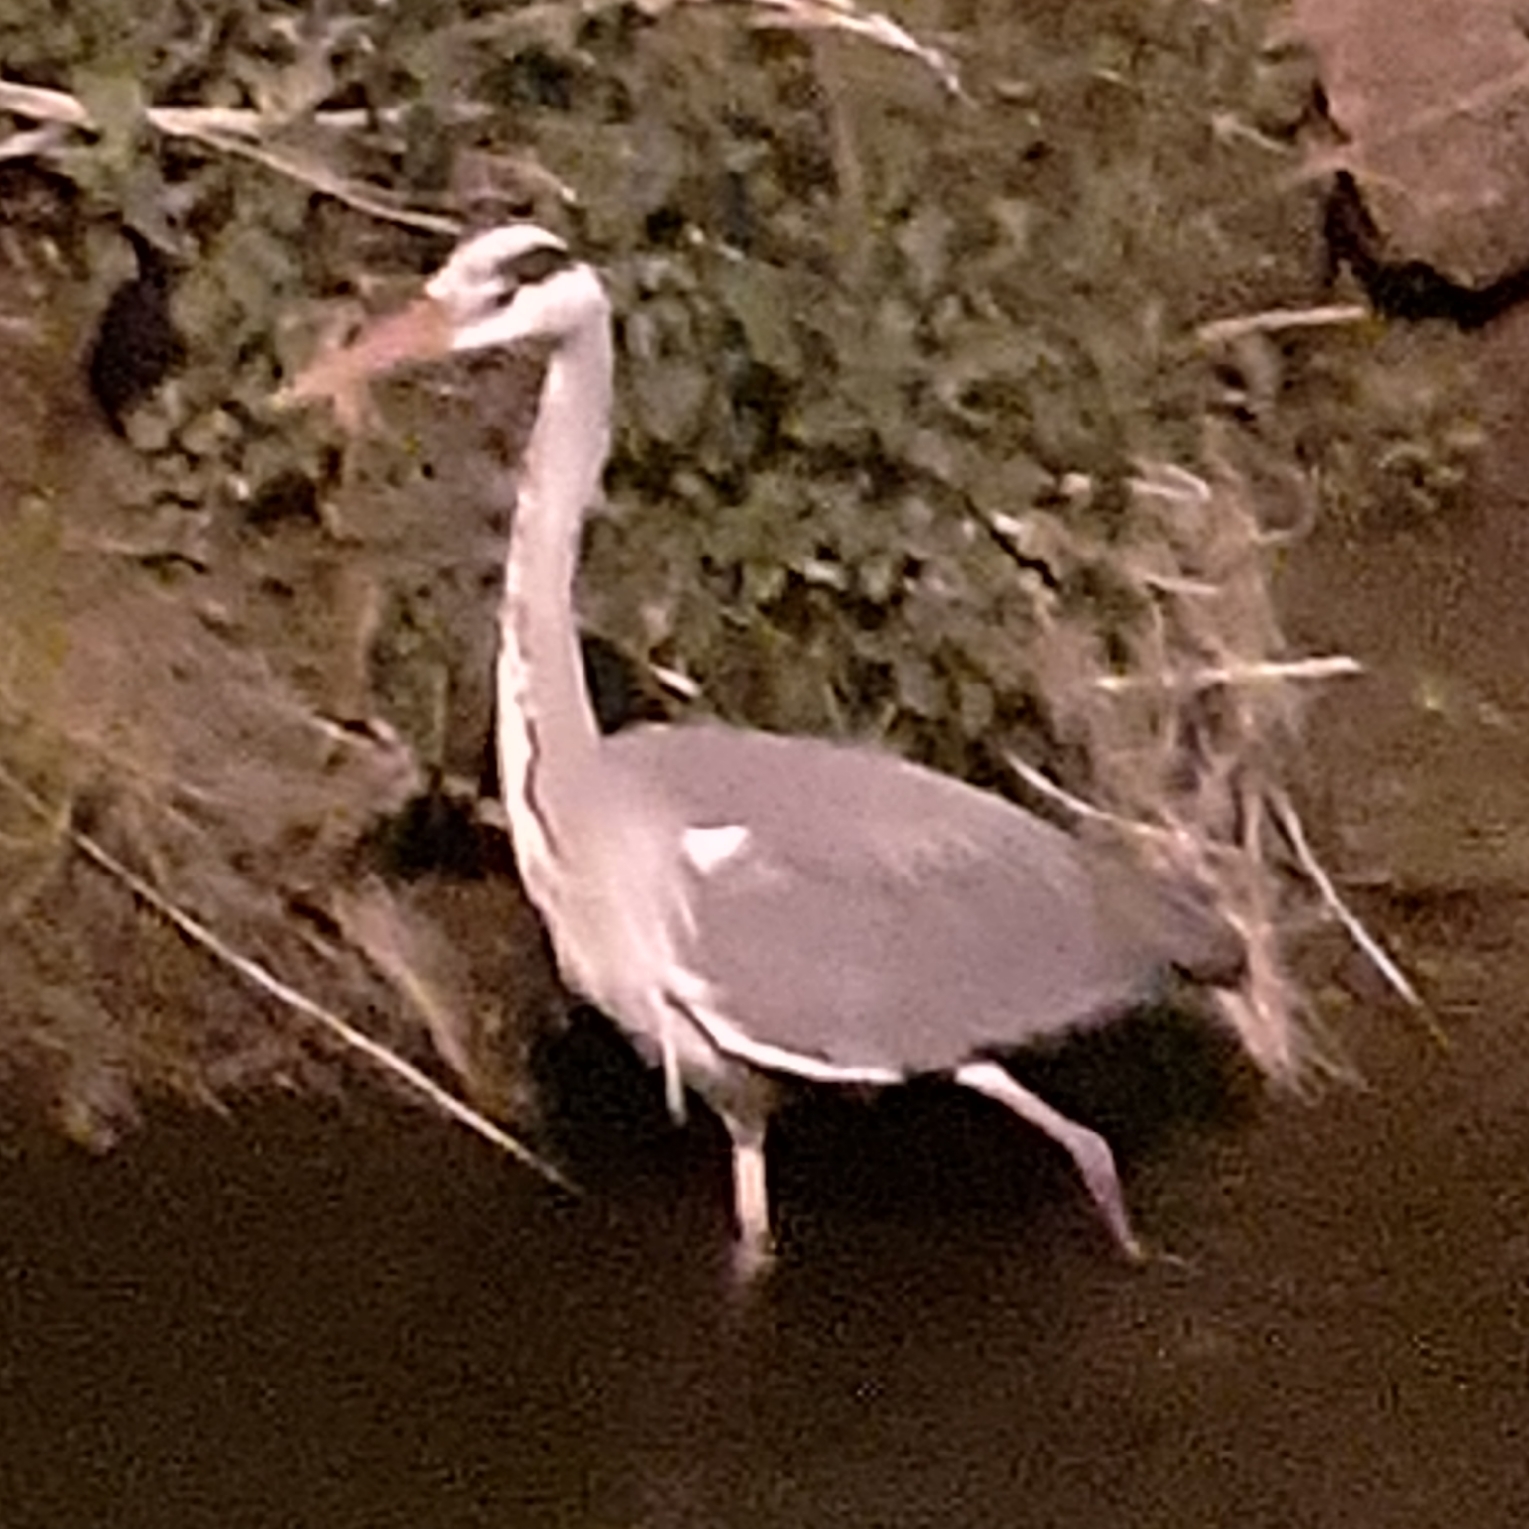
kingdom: Animalia
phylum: Chordata
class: Aves
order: Pelecaniformes
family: Ardeidae
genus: Ardea
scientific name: Ardea cinerea
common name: Grey heron
